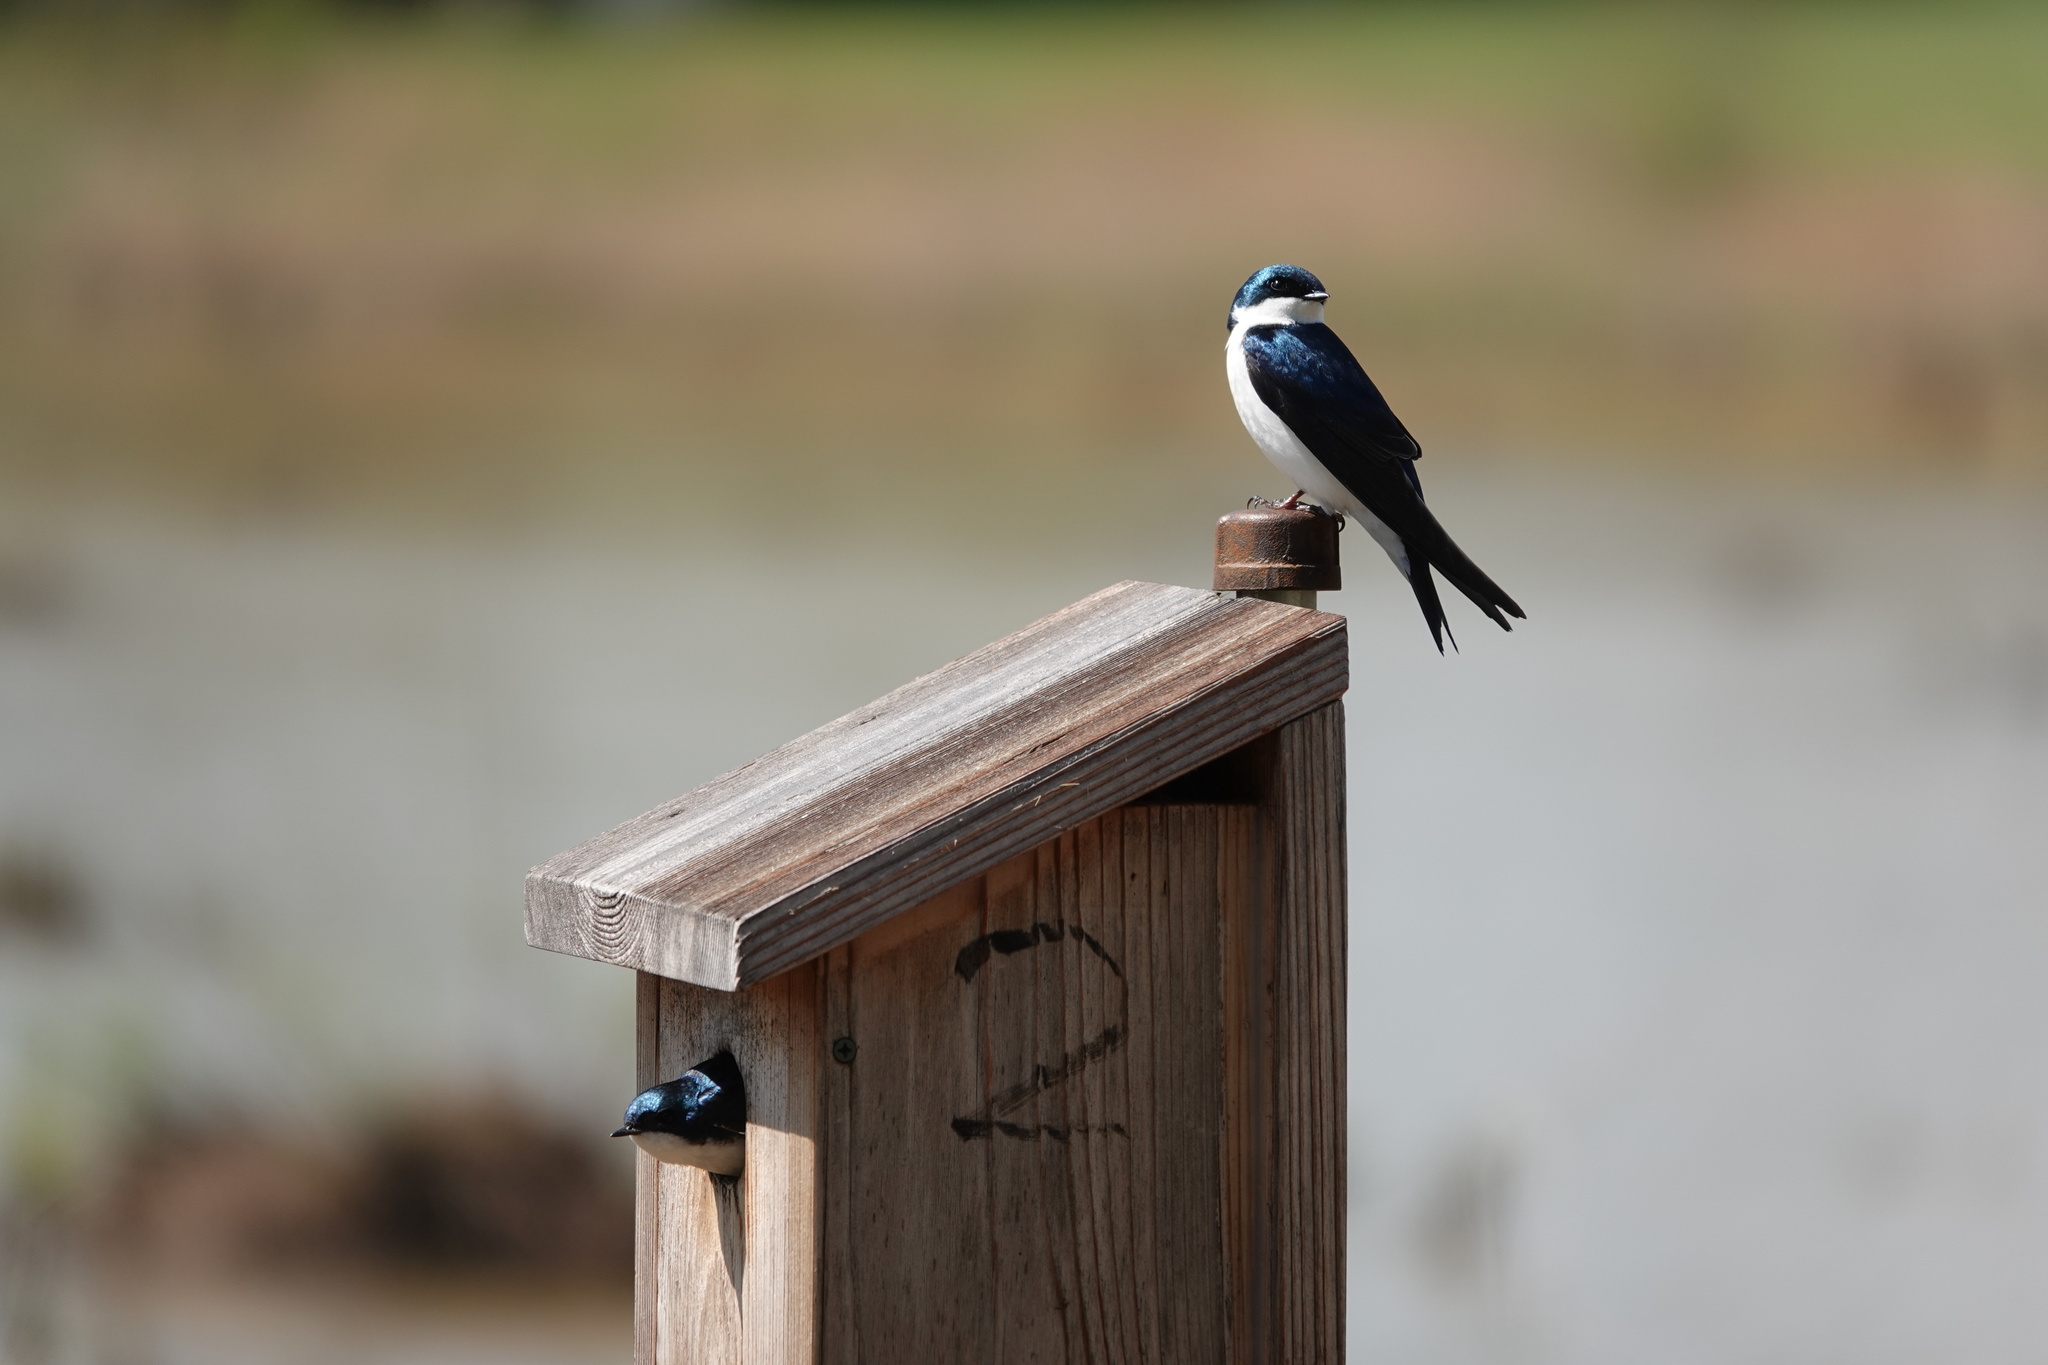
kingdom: Animalia
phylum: Chordata
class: Aves
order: Passeriformes
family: Hirundinidae
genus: Tachycineta
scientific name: Tachycineta bicolor
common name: Tree swallow
